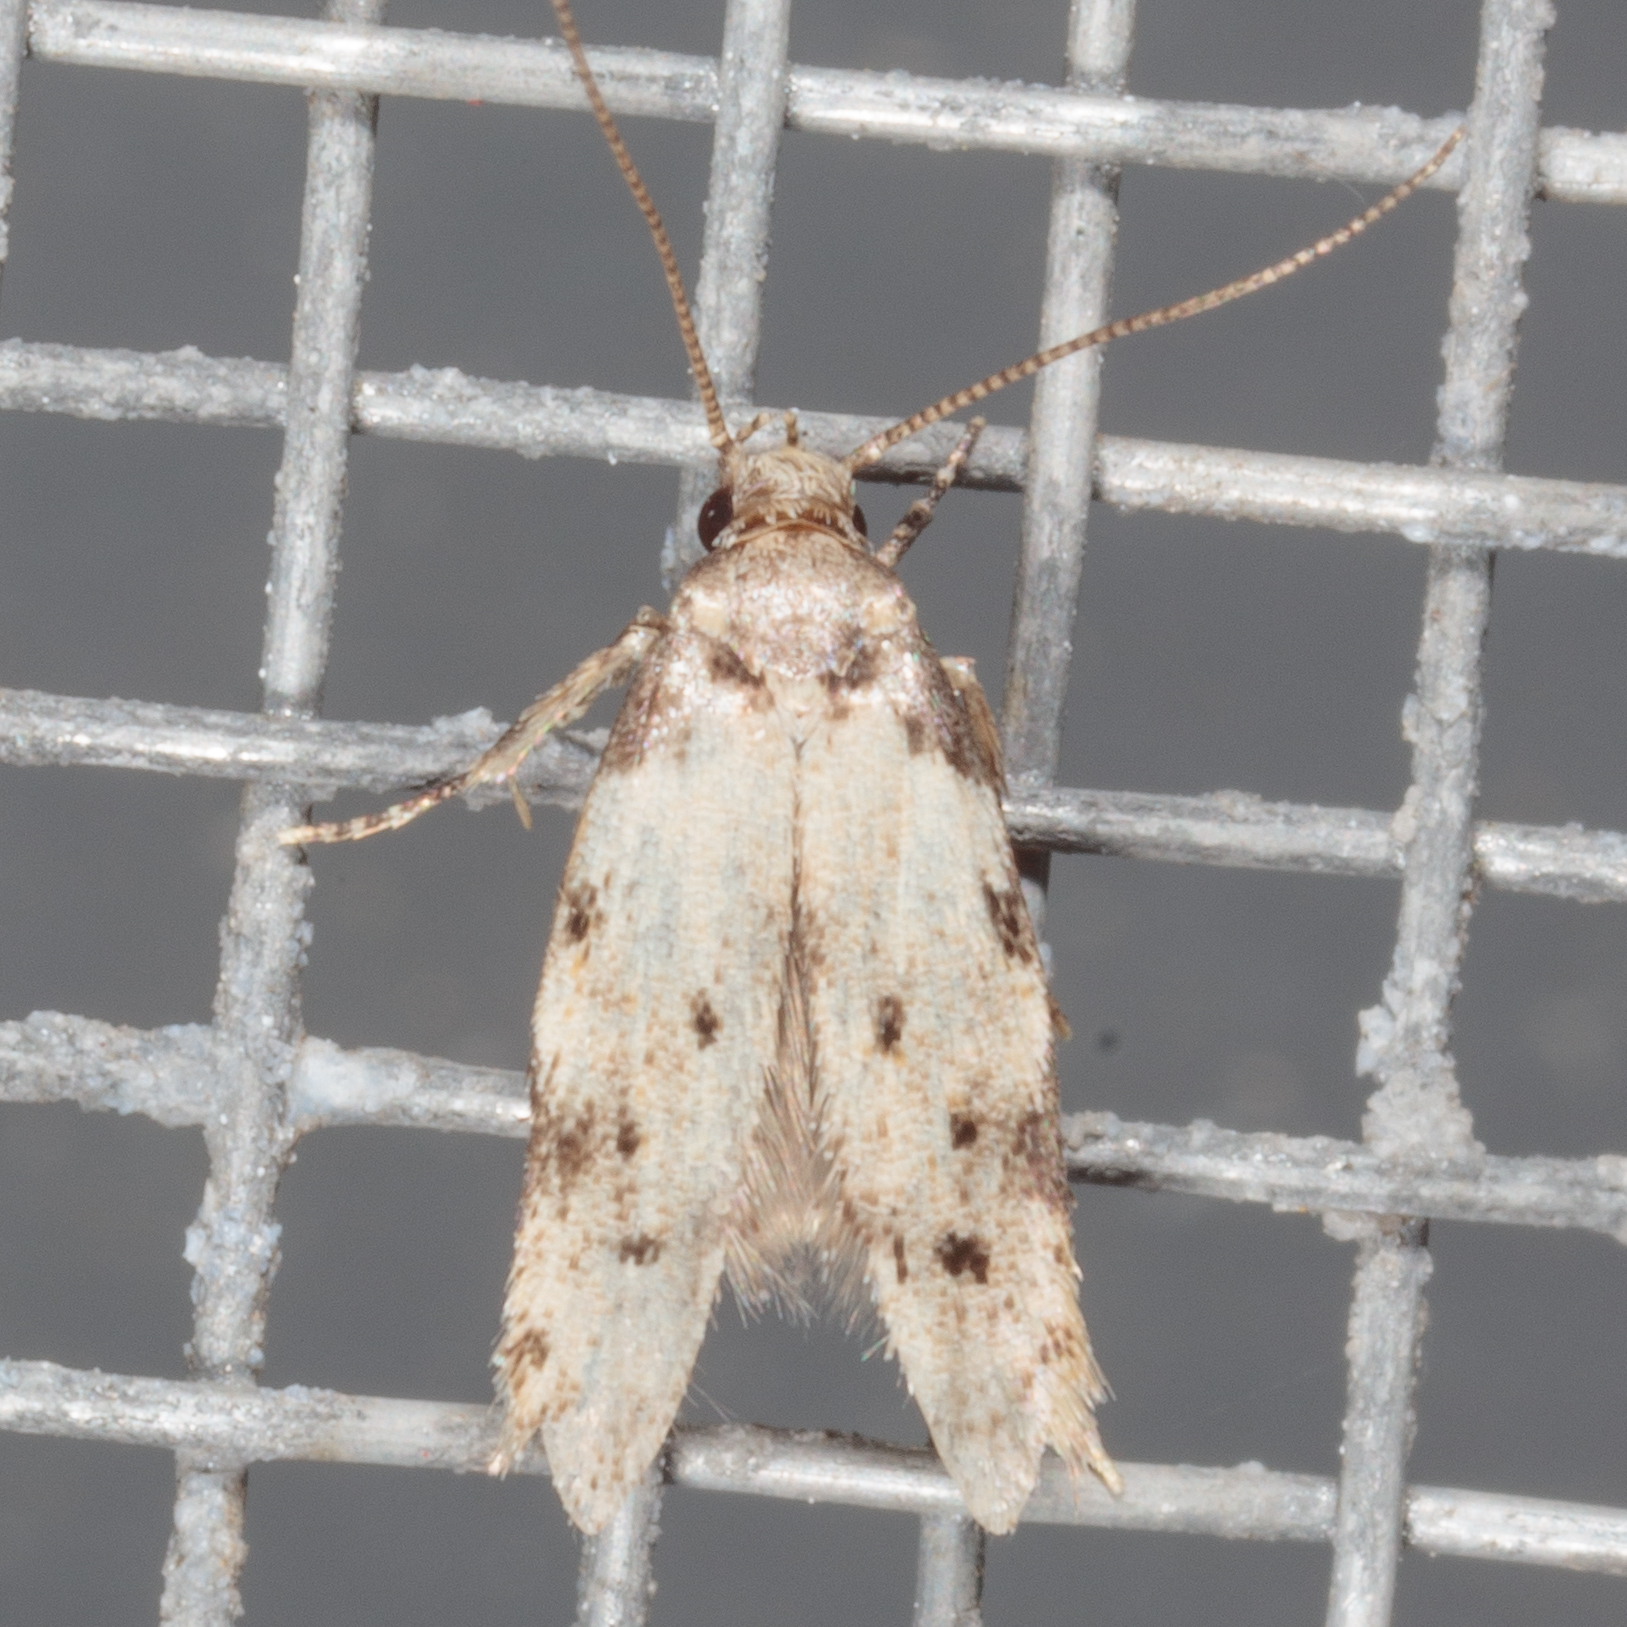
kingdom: Animalia
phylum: Arthropoda
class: Insecta
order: Lepidoptera
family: Autostichidae
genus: Taygete
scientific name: Taygete attributella
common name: Triangle-marked twirler moth
